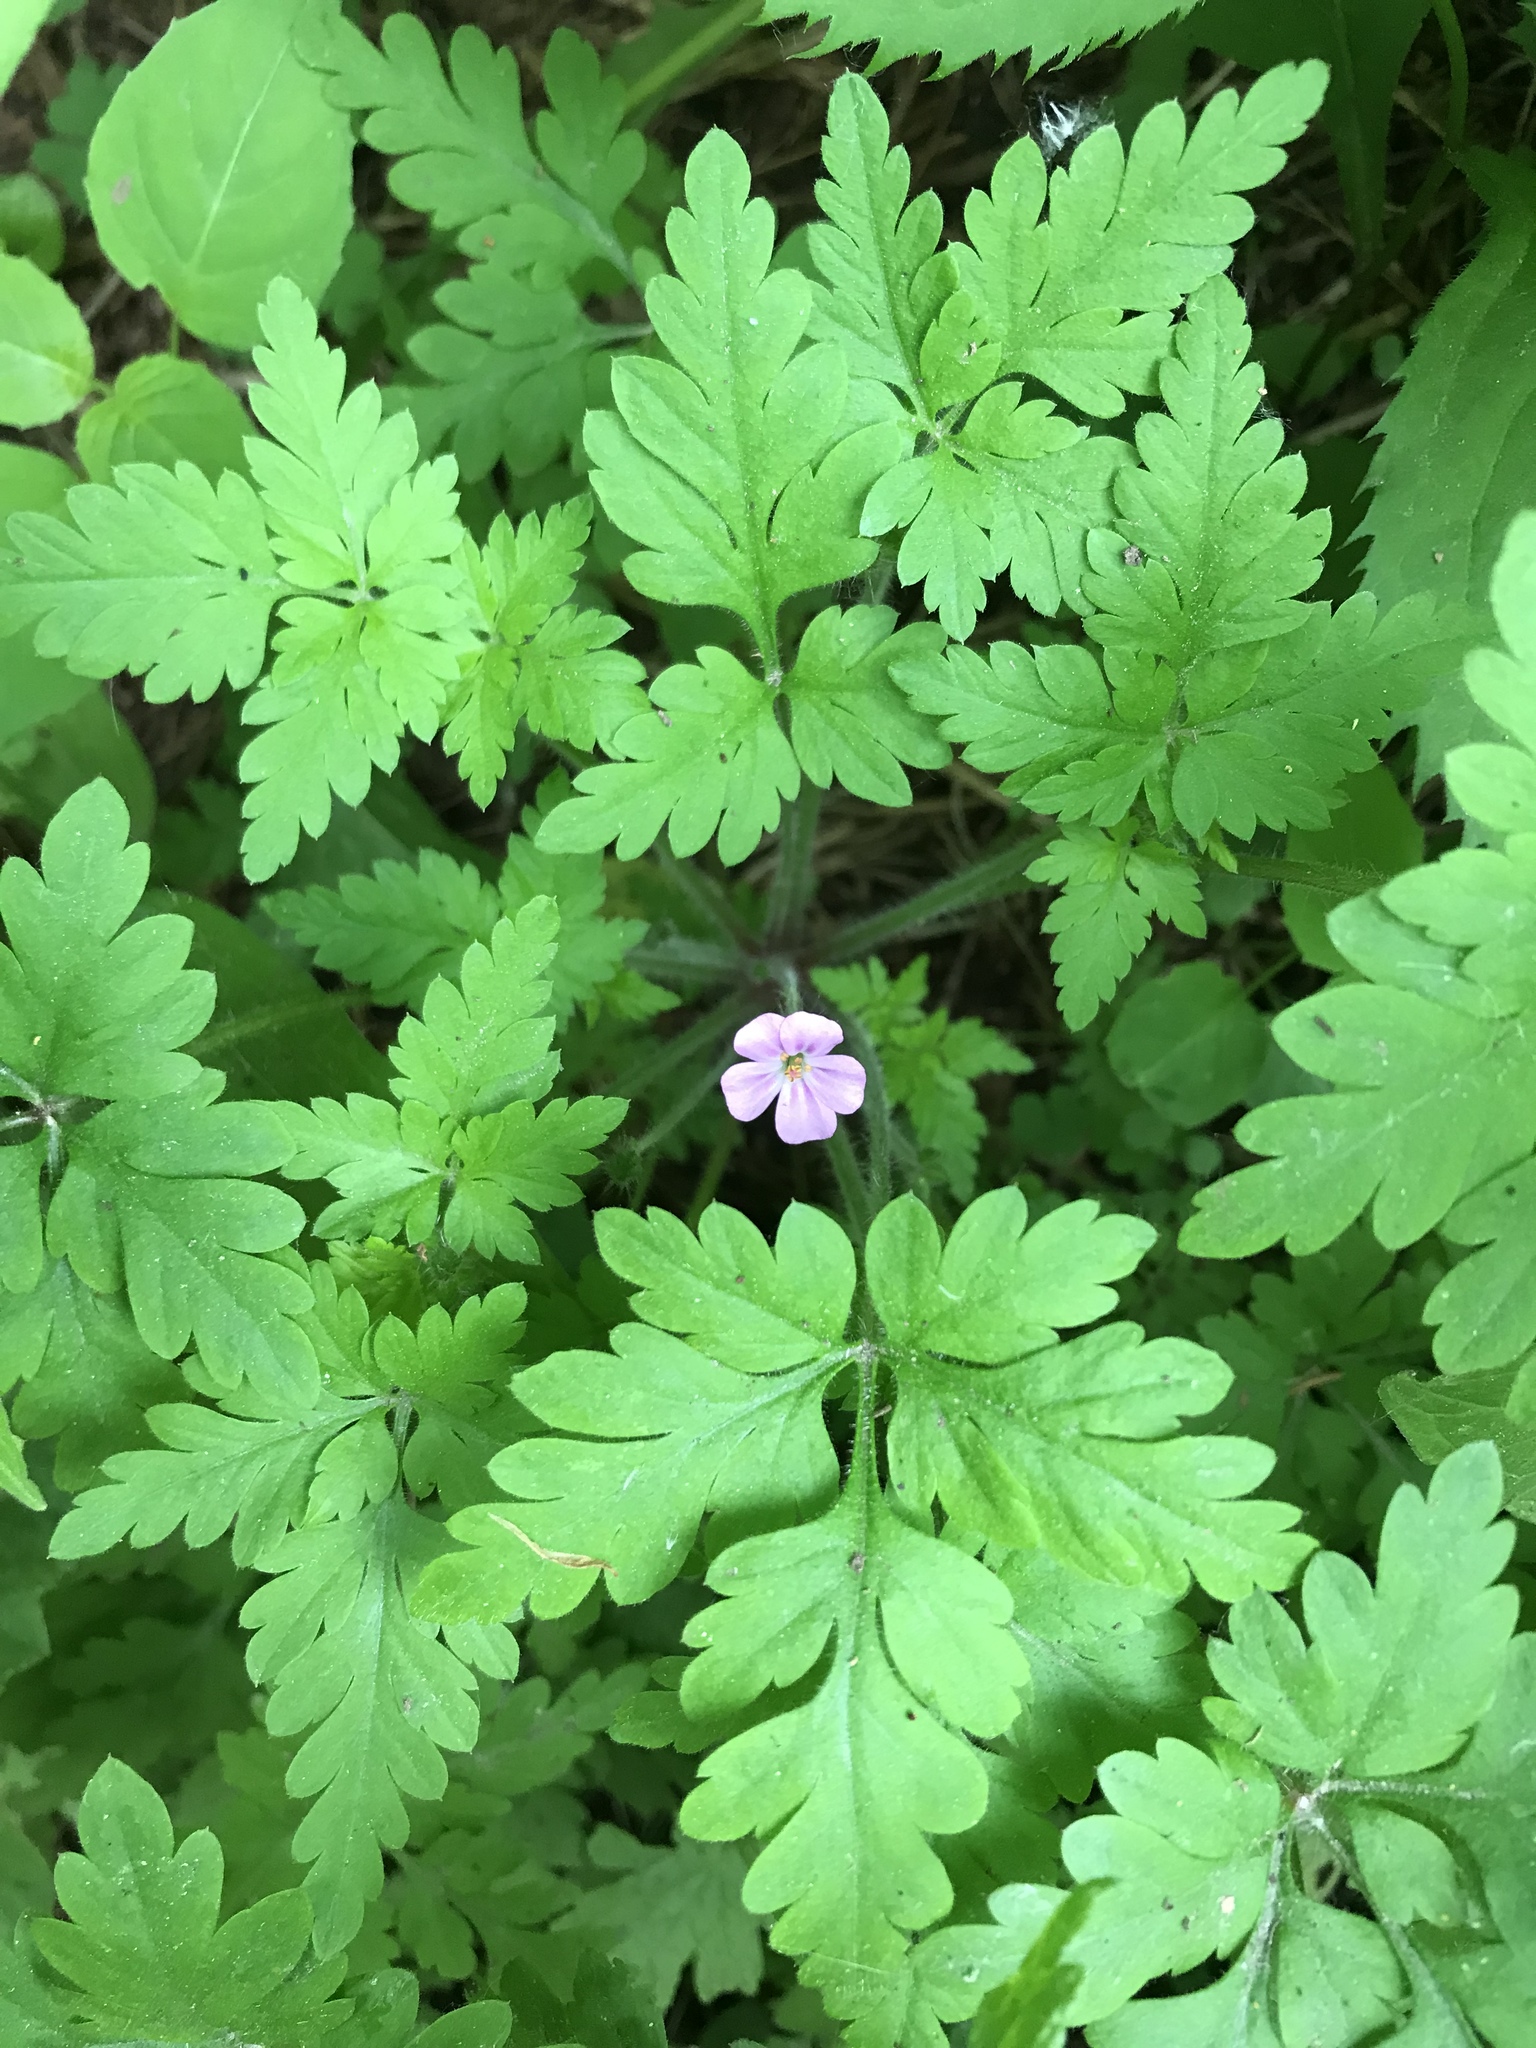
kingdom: Plantae
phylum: Tracheophyta
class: Magnoliopsida
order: Geraniales
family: Geraniaceae
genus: Geranium
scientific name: Geranium robertianum
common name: Herb-robert
